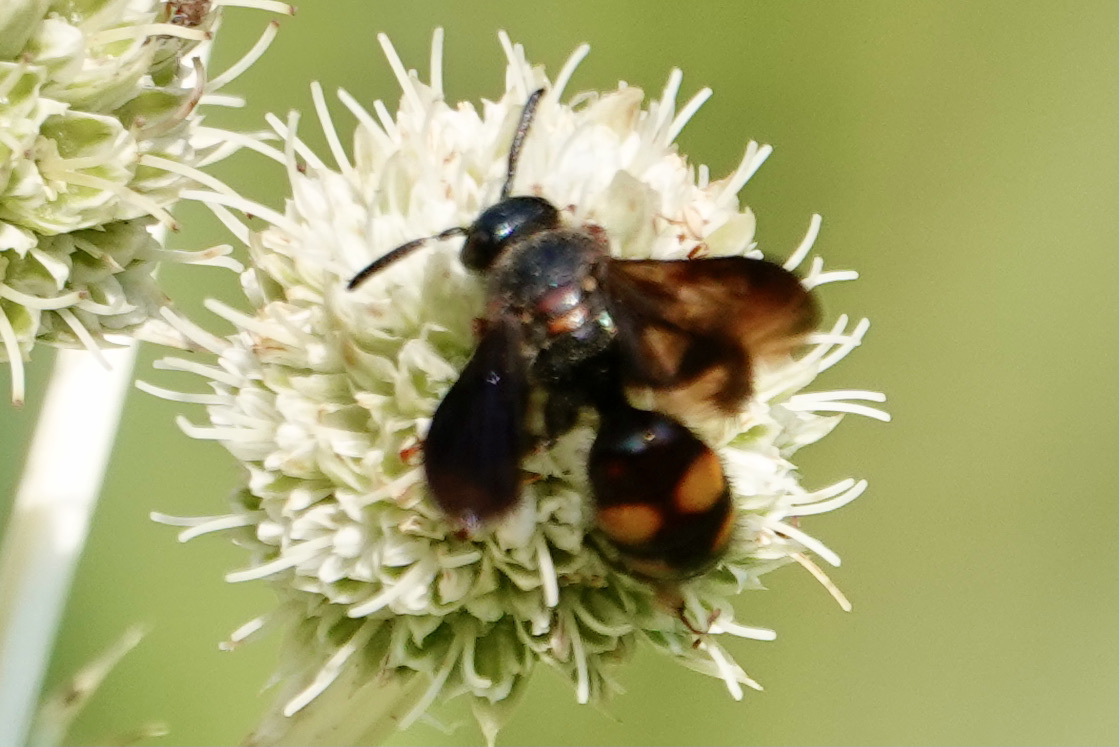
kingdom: Animalia
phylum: Arthropoda
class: Insecta
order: Hymenoptera
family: Scoliidae
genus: Scolia
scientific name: Scolia nobilitata
